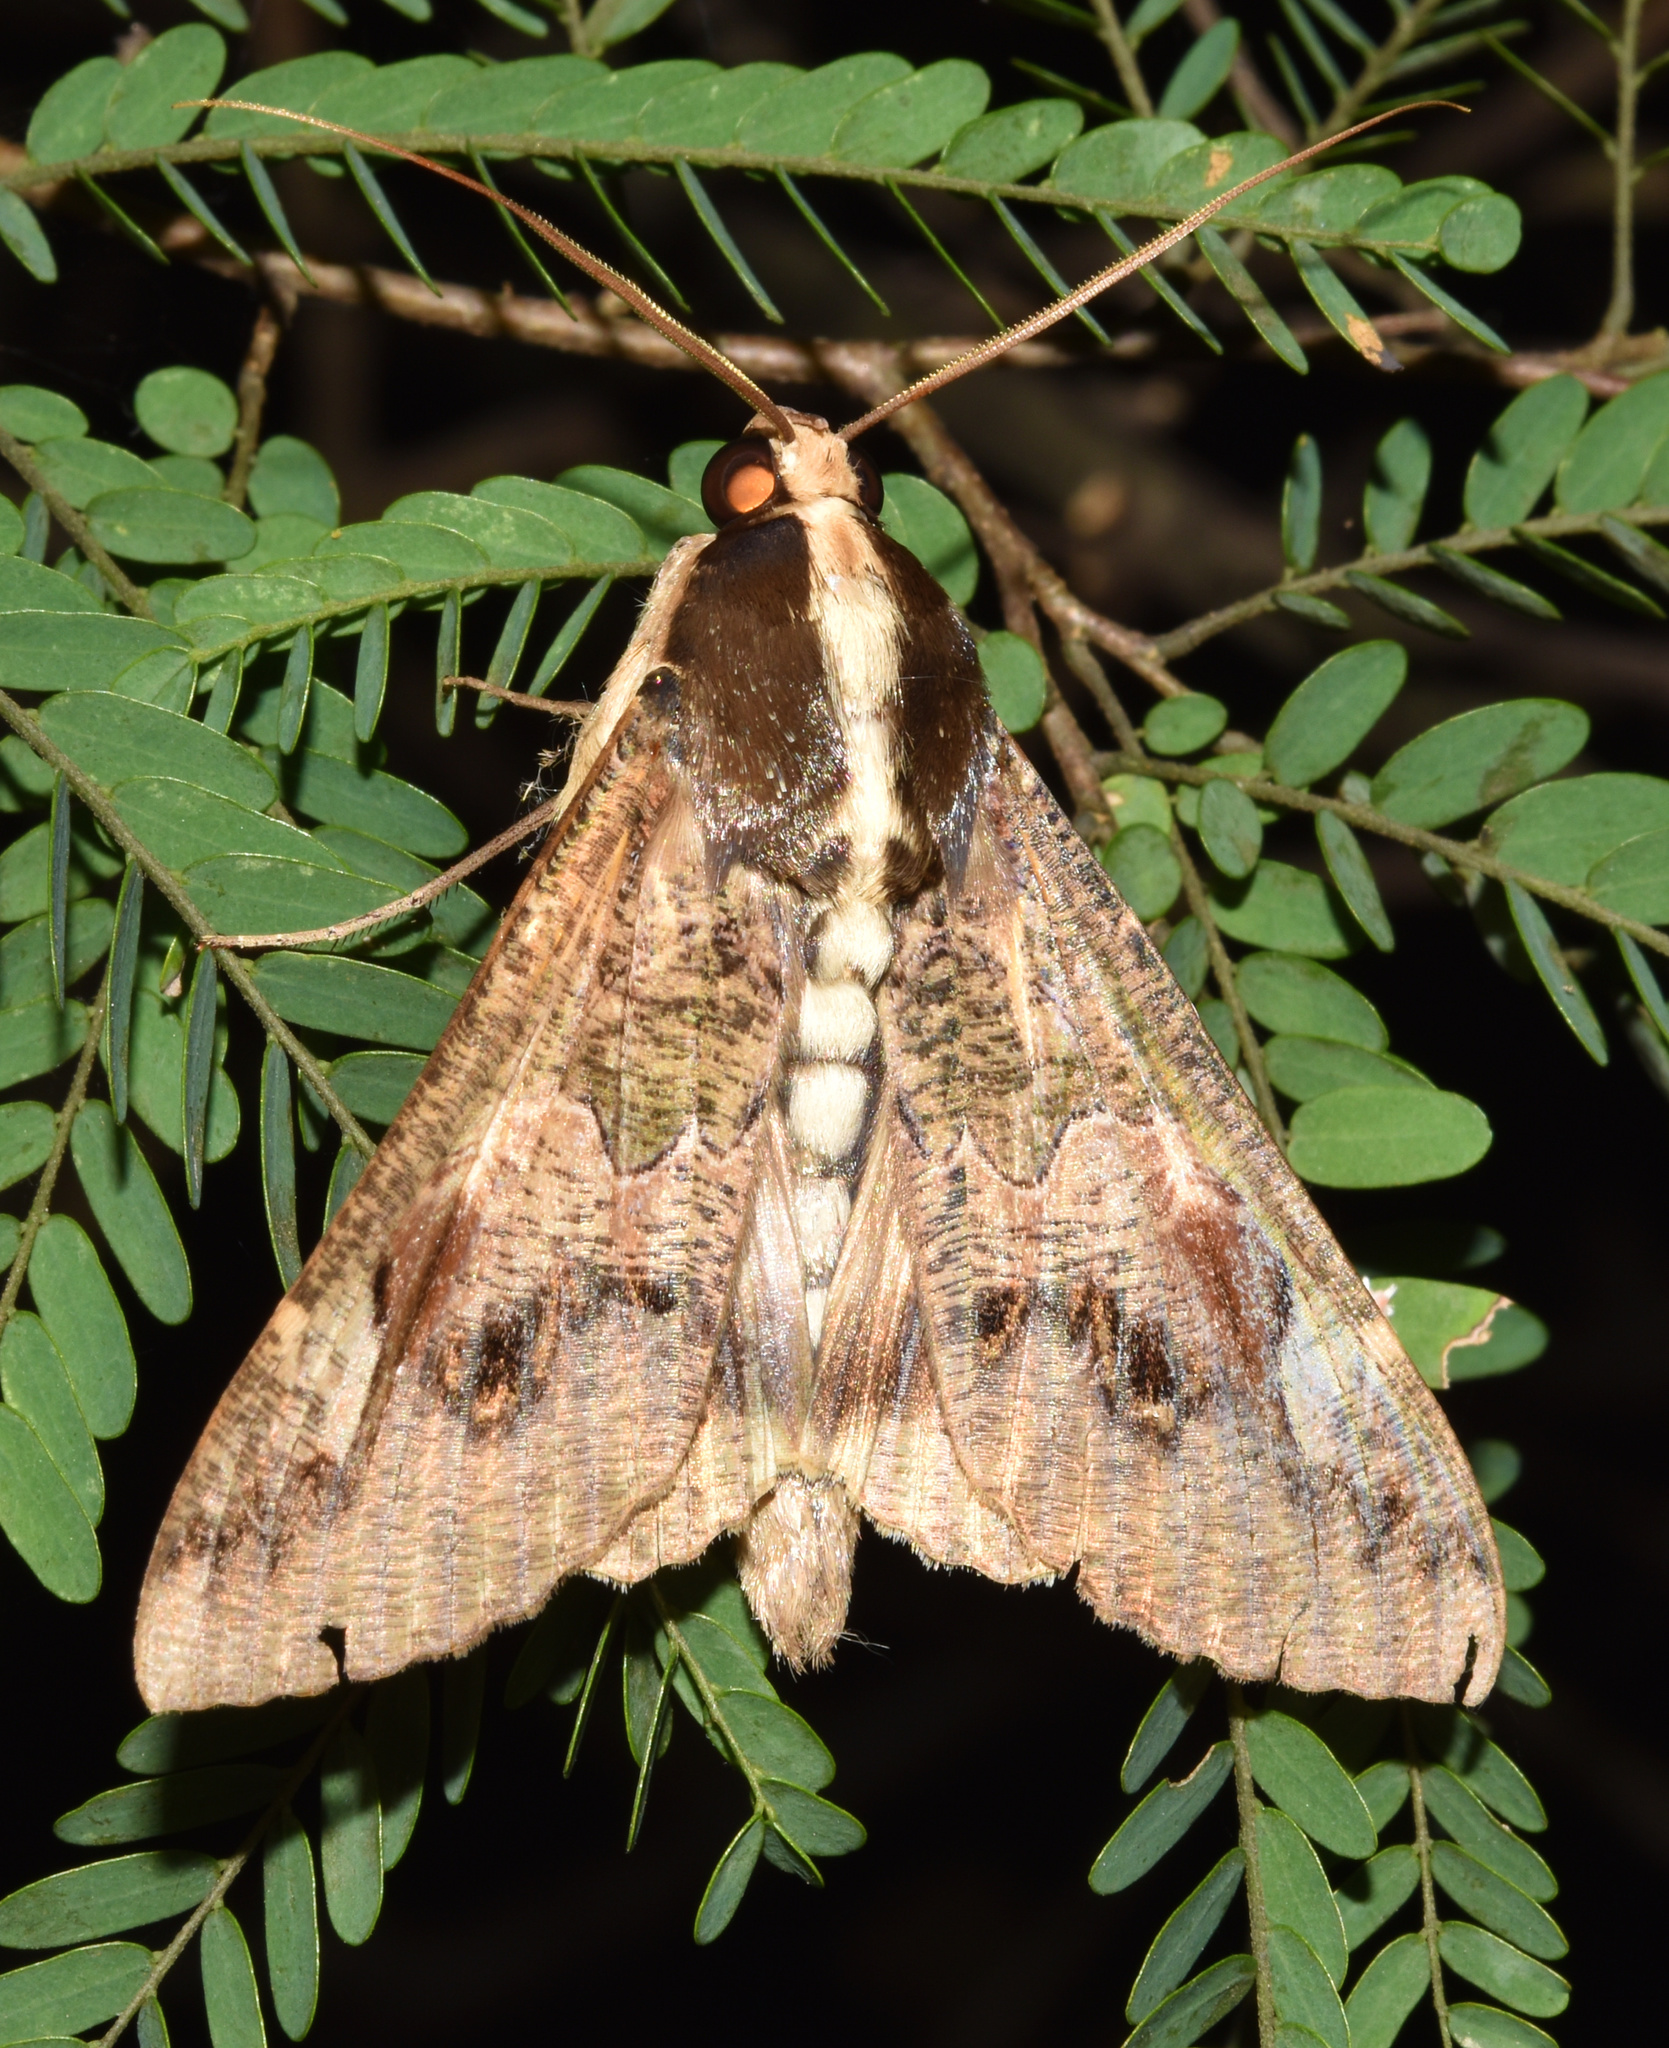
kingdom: Animalia
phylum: Arthropoda
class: Insecta
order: Lepidoptera
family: Erebidae
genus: Sphingomorpha
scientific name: Sphingomorpha chlorea
